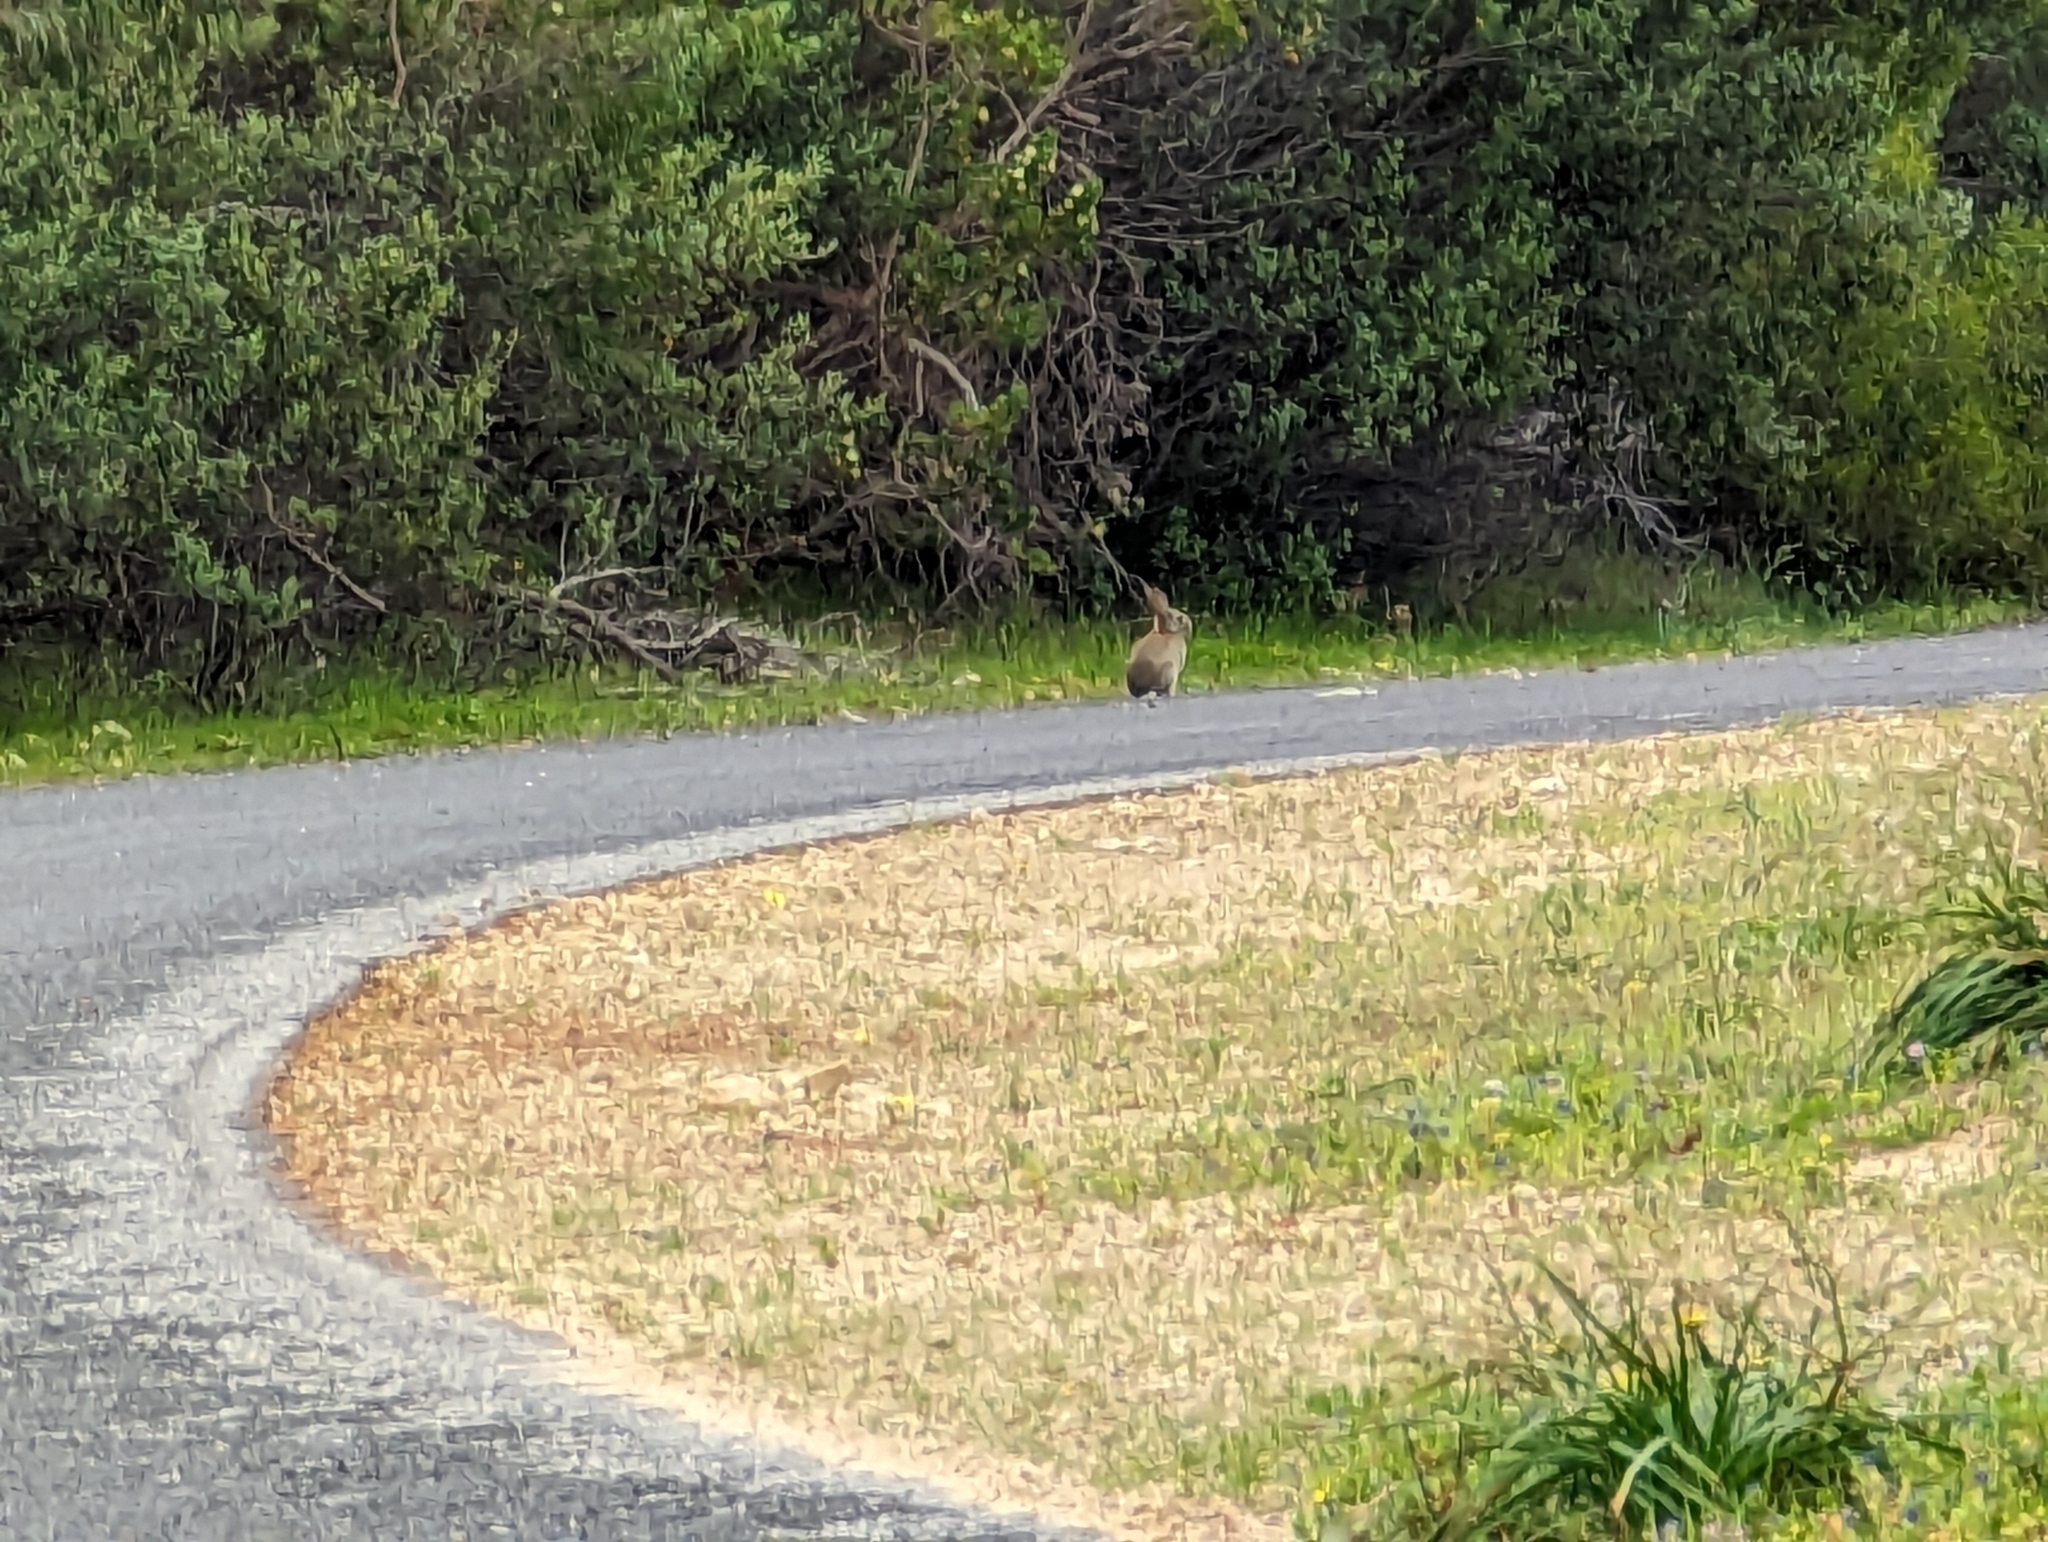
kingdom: Animalia
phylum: Chordata
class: Mammalia
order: Lagomorpha
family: Leporidae
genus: Oryctolagus
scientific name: Oryctolagus cuniculus
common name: European rabbit
